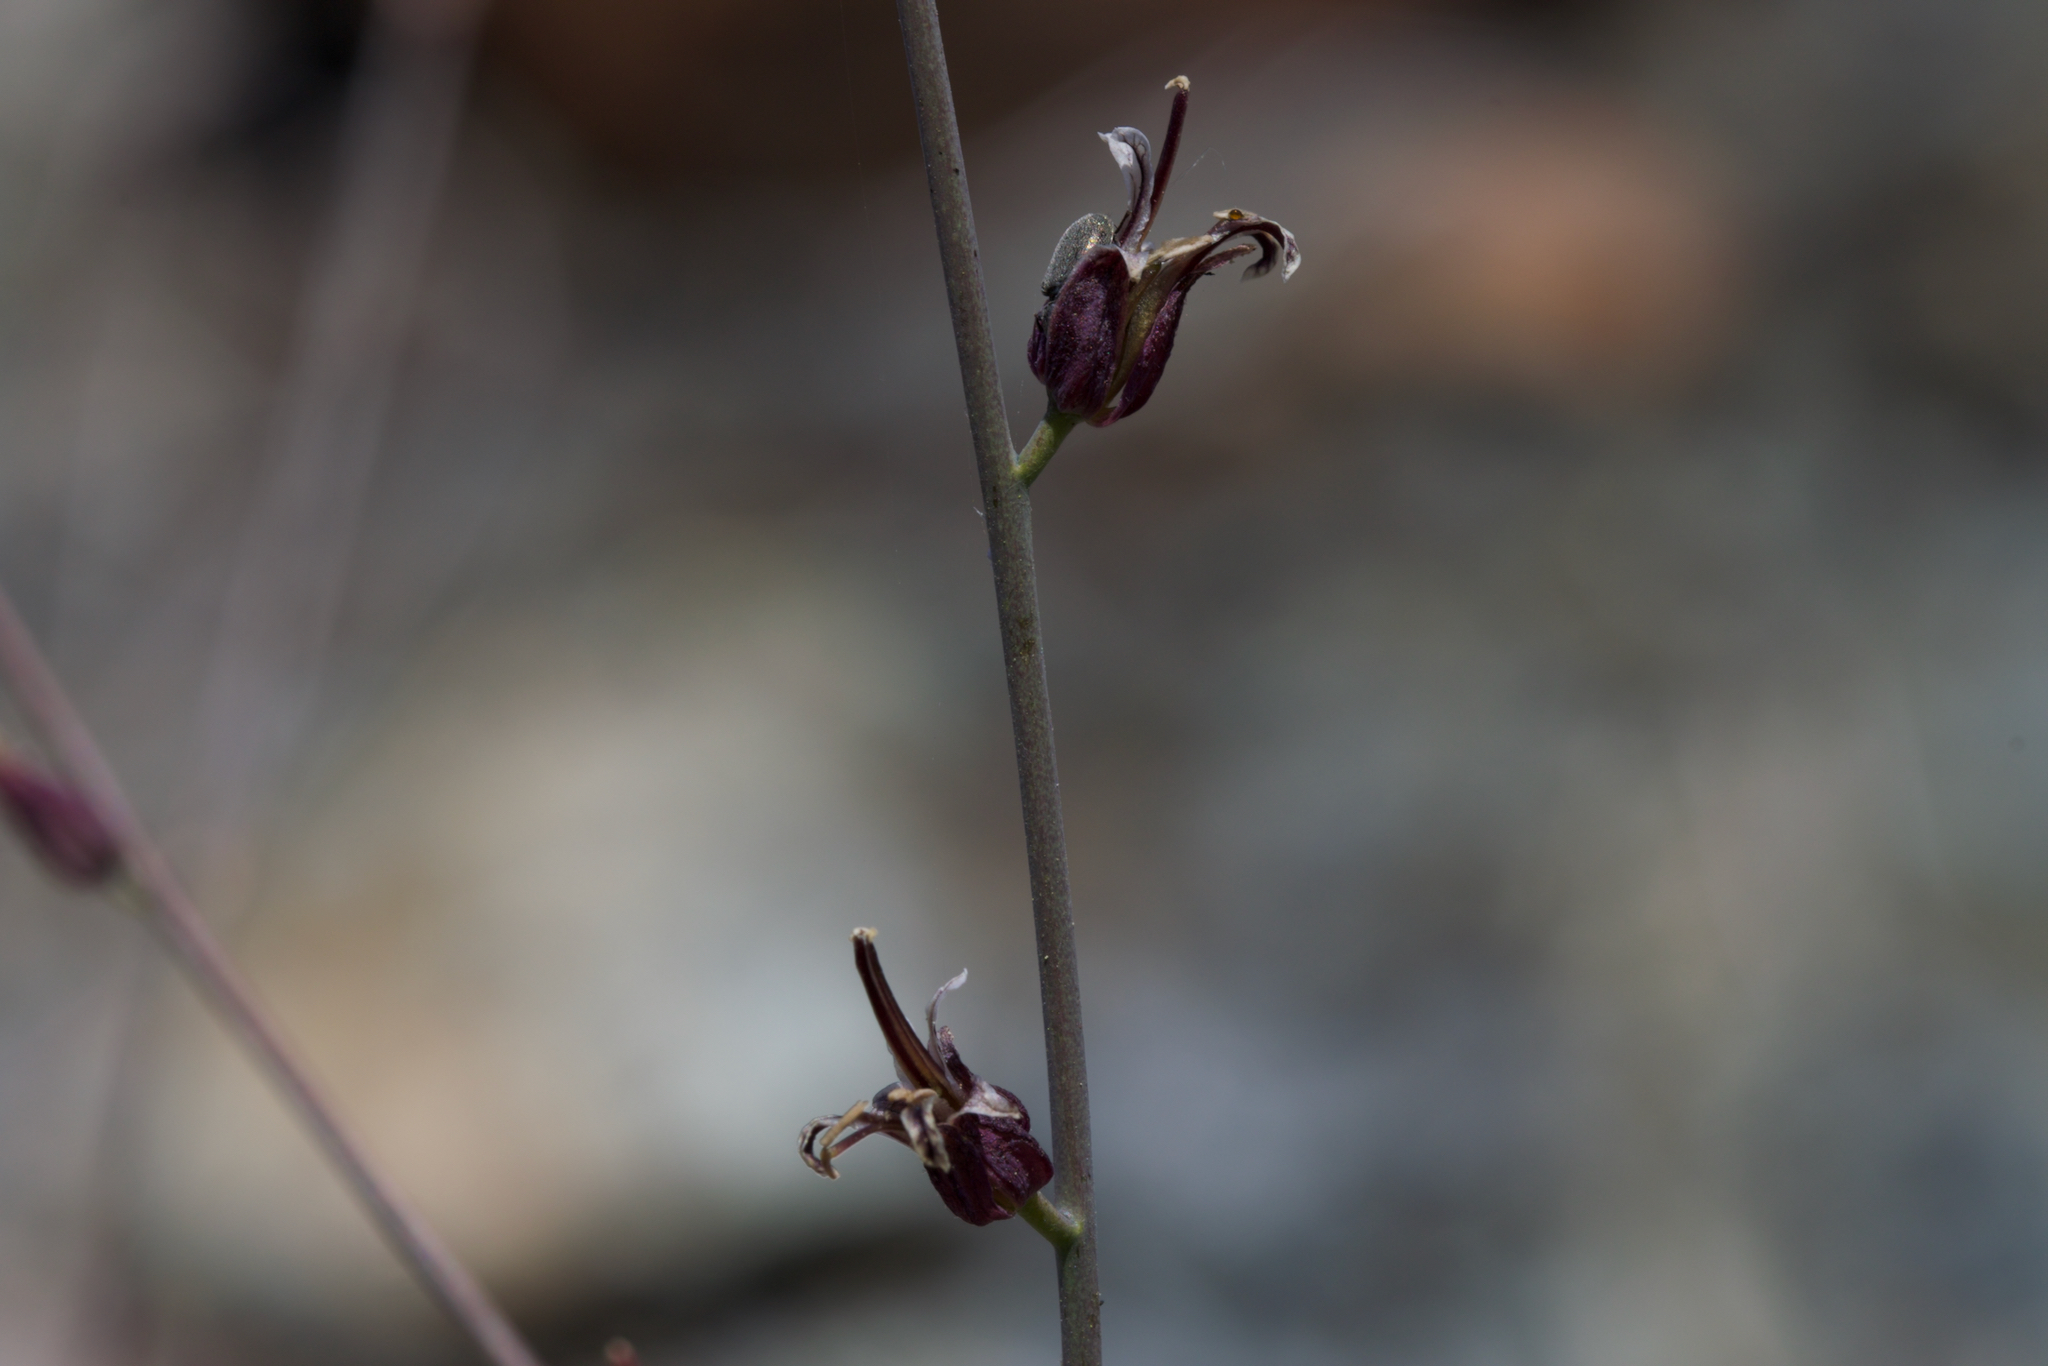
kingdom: Plantae
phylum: Tracheophyta
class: Magnoliopsida
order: Brassicales
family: Brassicaceae
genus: Streptanthus
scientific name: Streptanthus breweri
